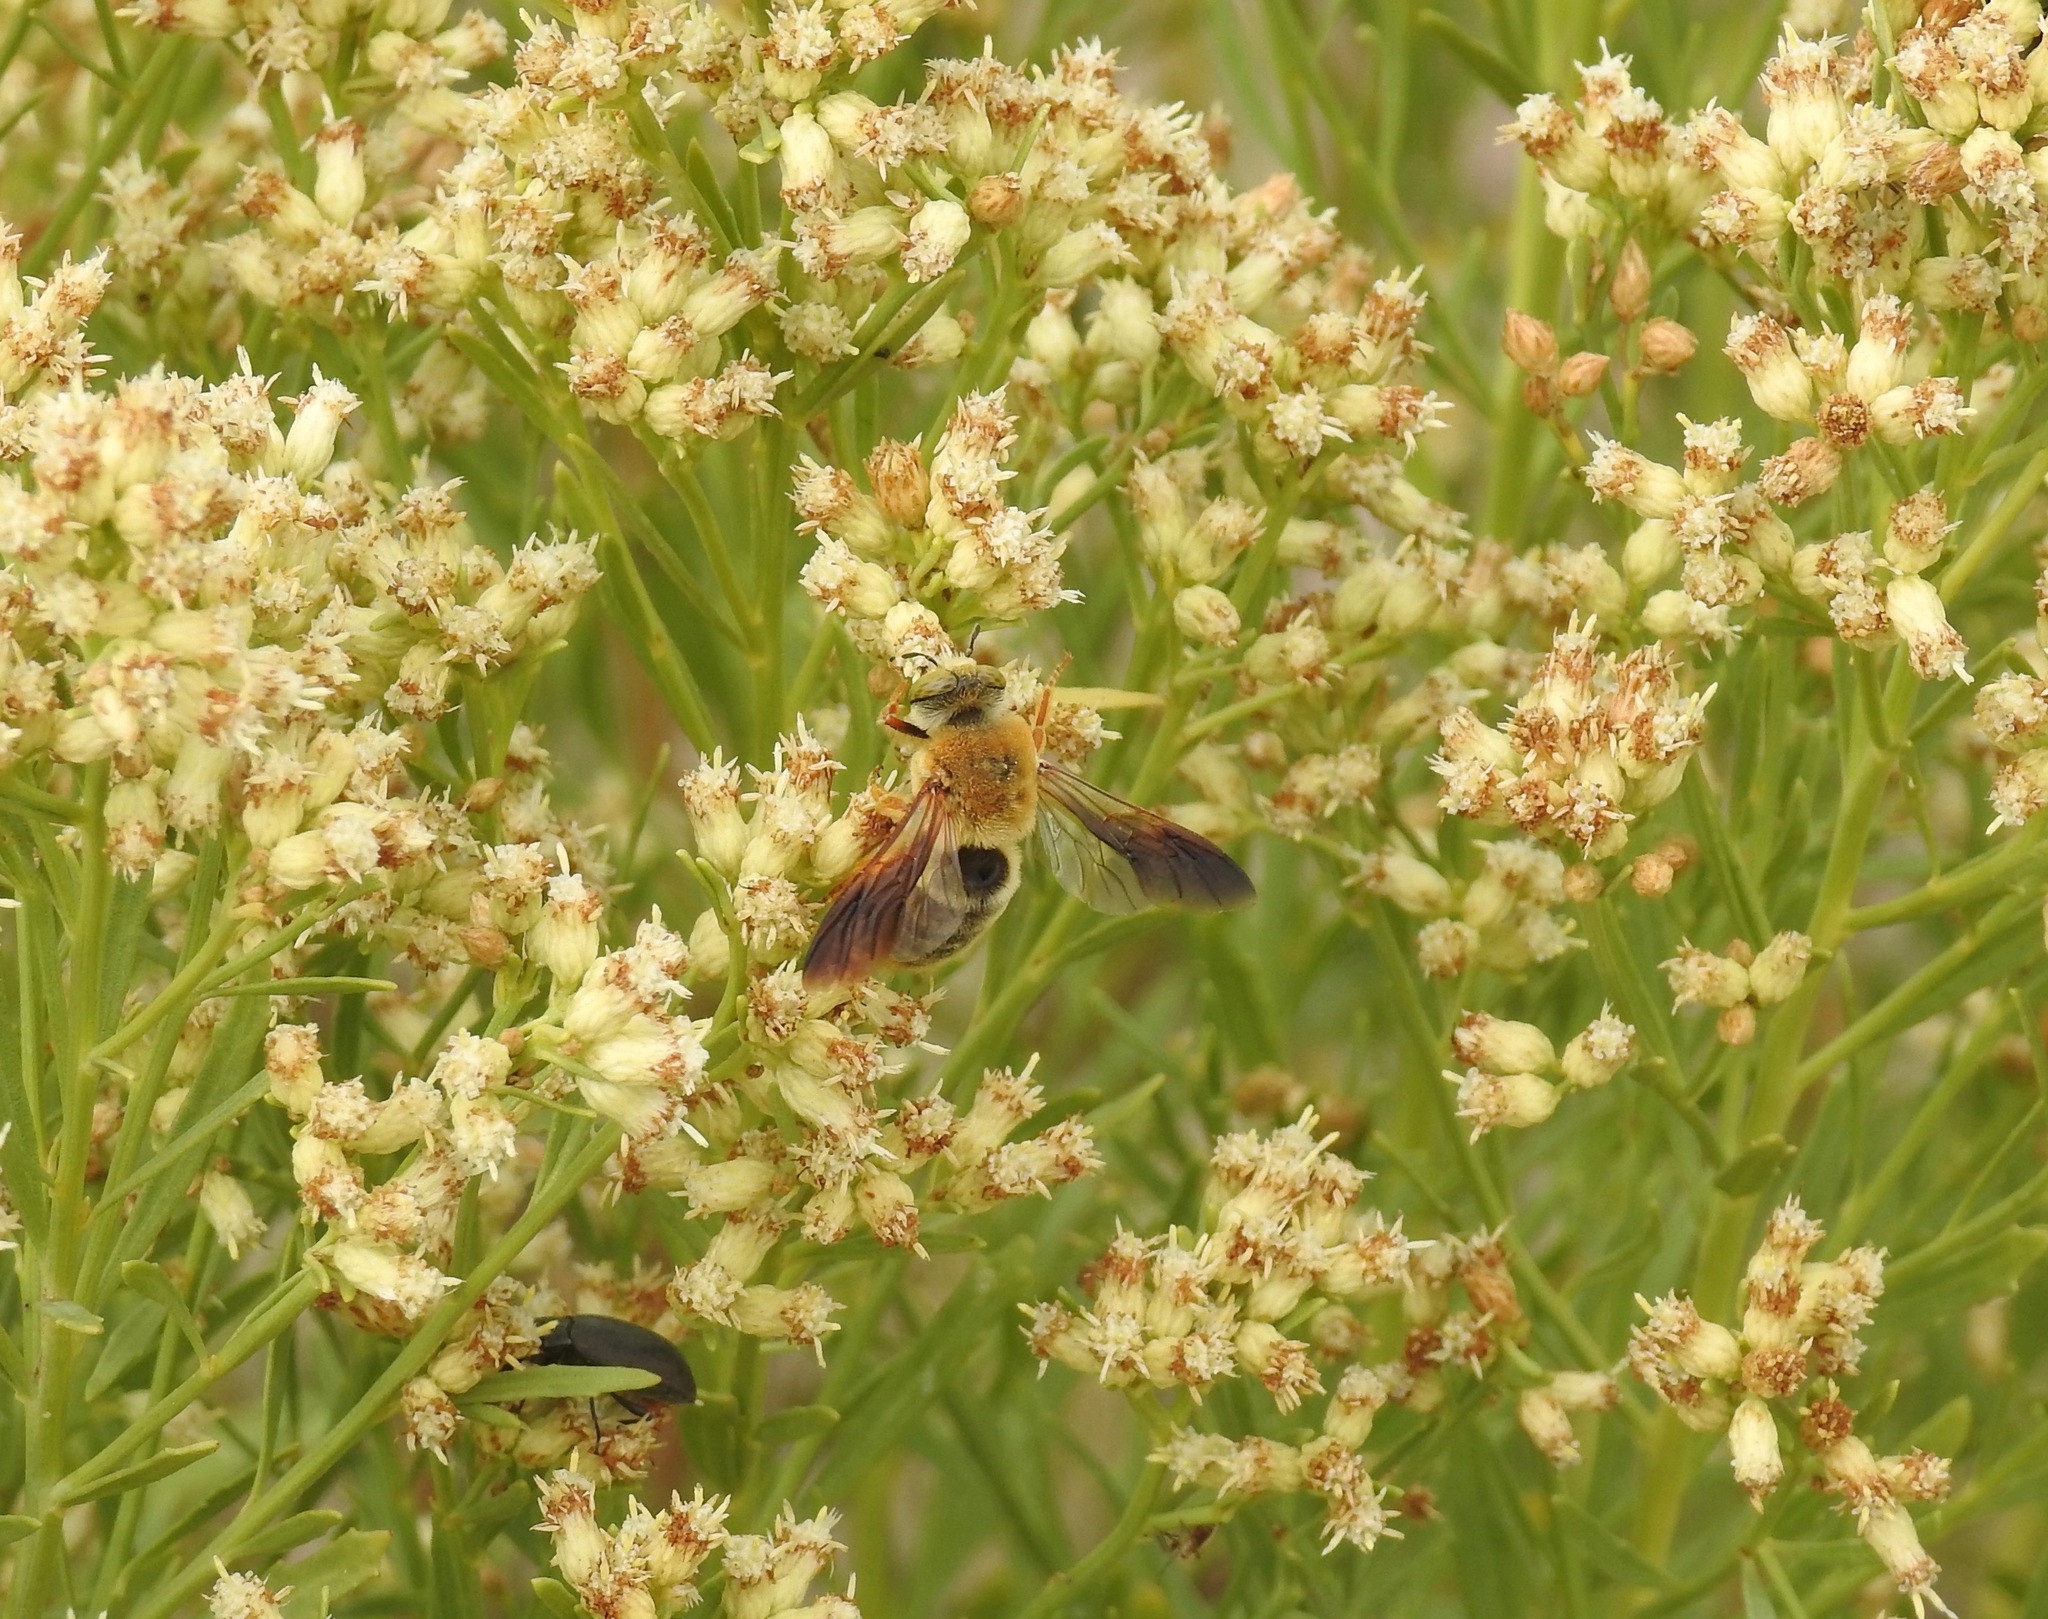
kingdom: Animalia
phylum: Arthropoda
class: Insecta
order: Hymenoptera
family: Andrenidae
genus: Protoxaea
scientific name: Protoxaea gloriosa
